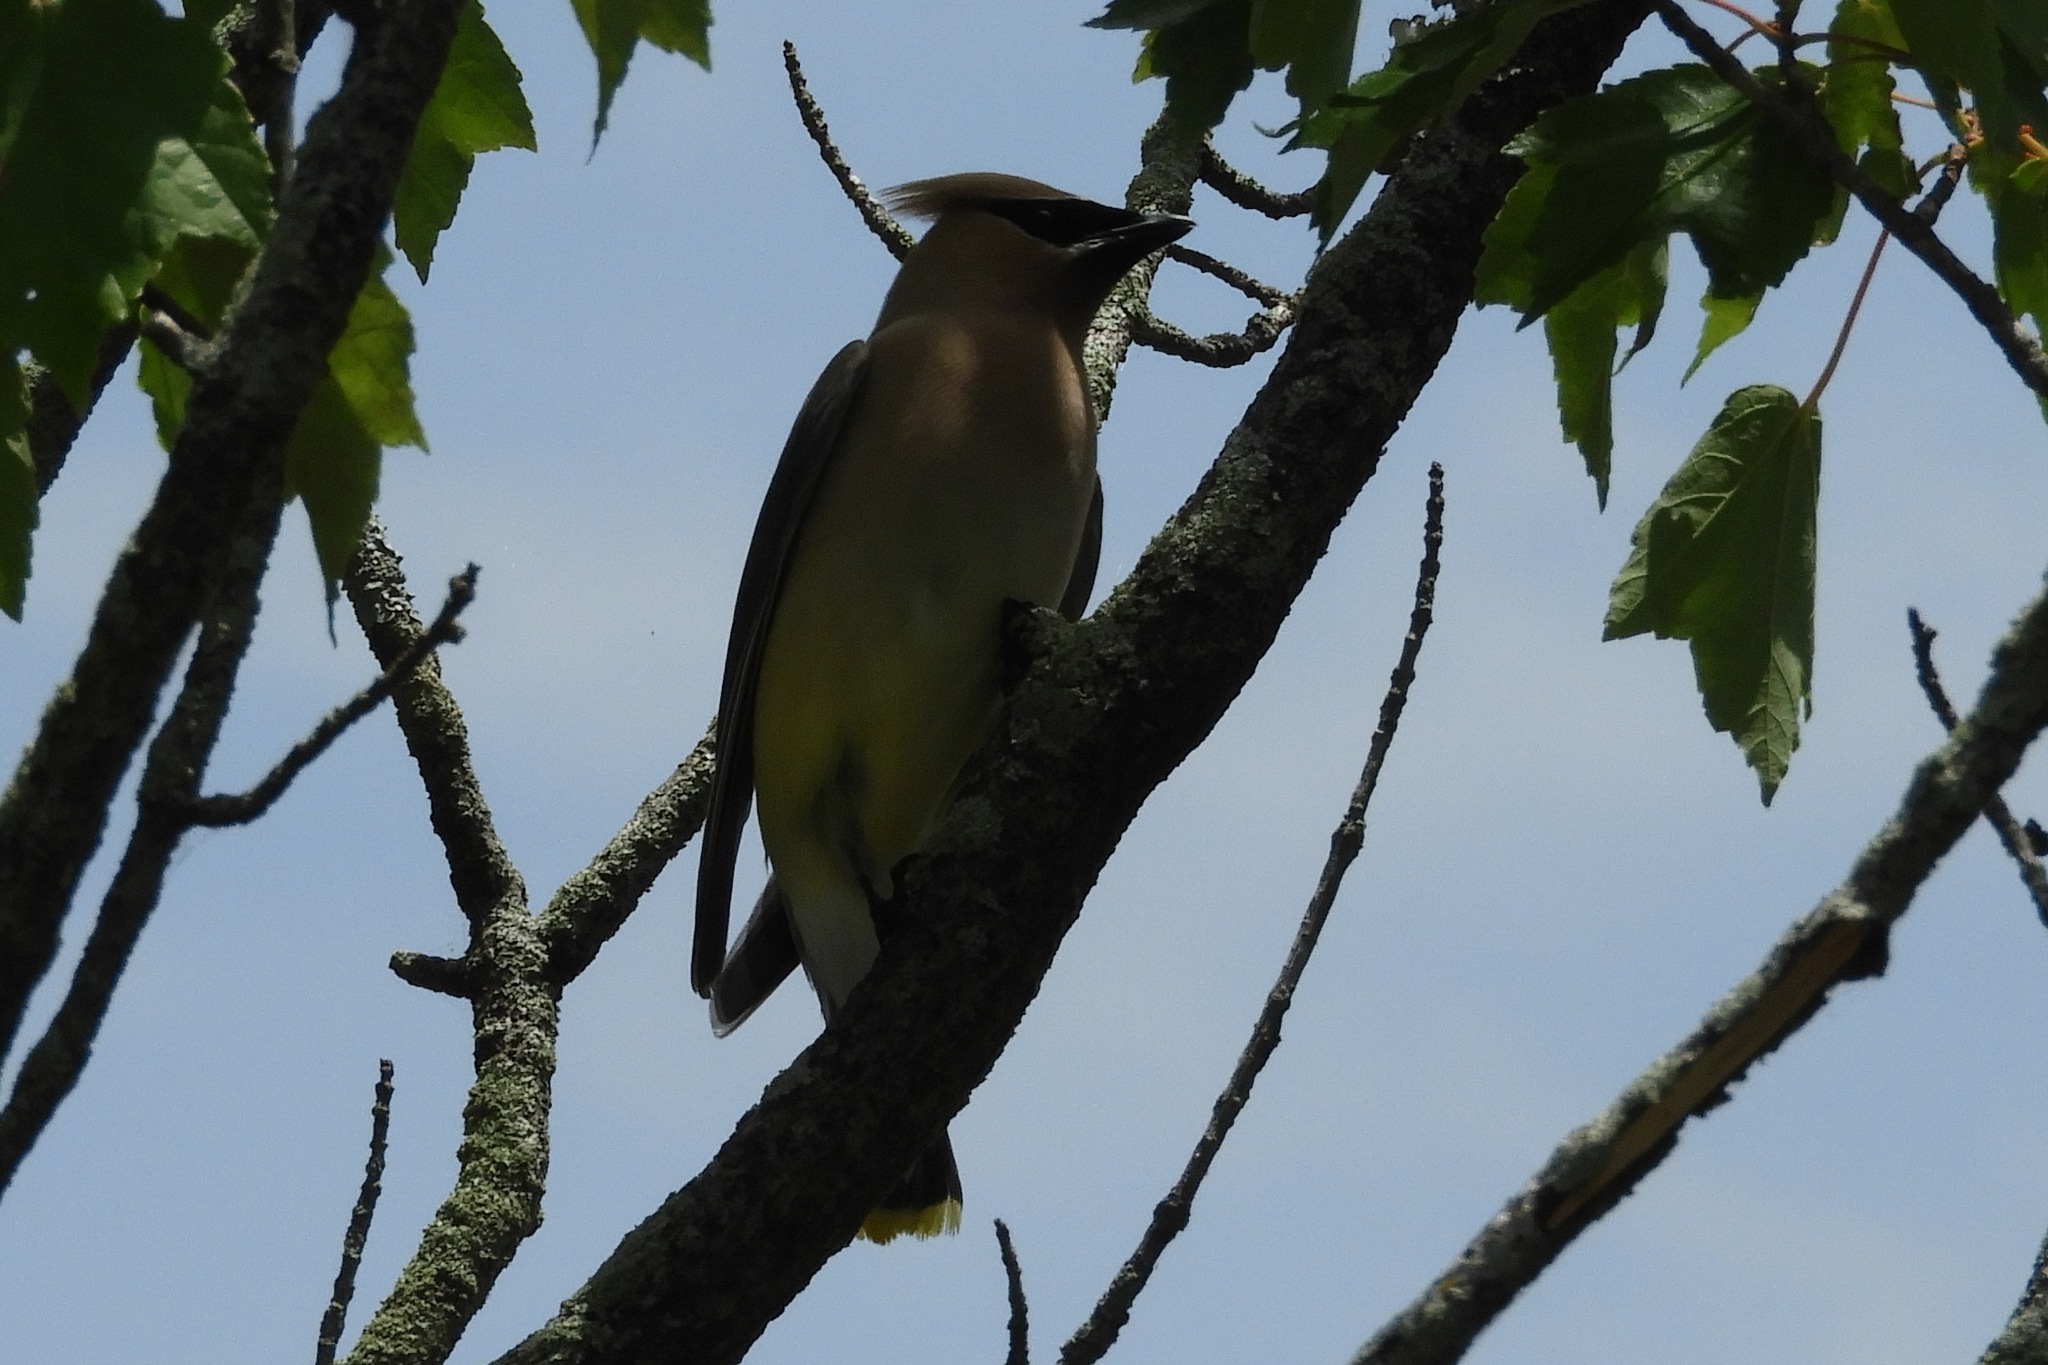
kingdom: Animalia
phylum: Chordata
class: Aves
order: Passeriformes
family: Bombycillidae
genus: Bombycilla
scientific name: Bombycilla cedrorum
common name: Cedar waxwing
